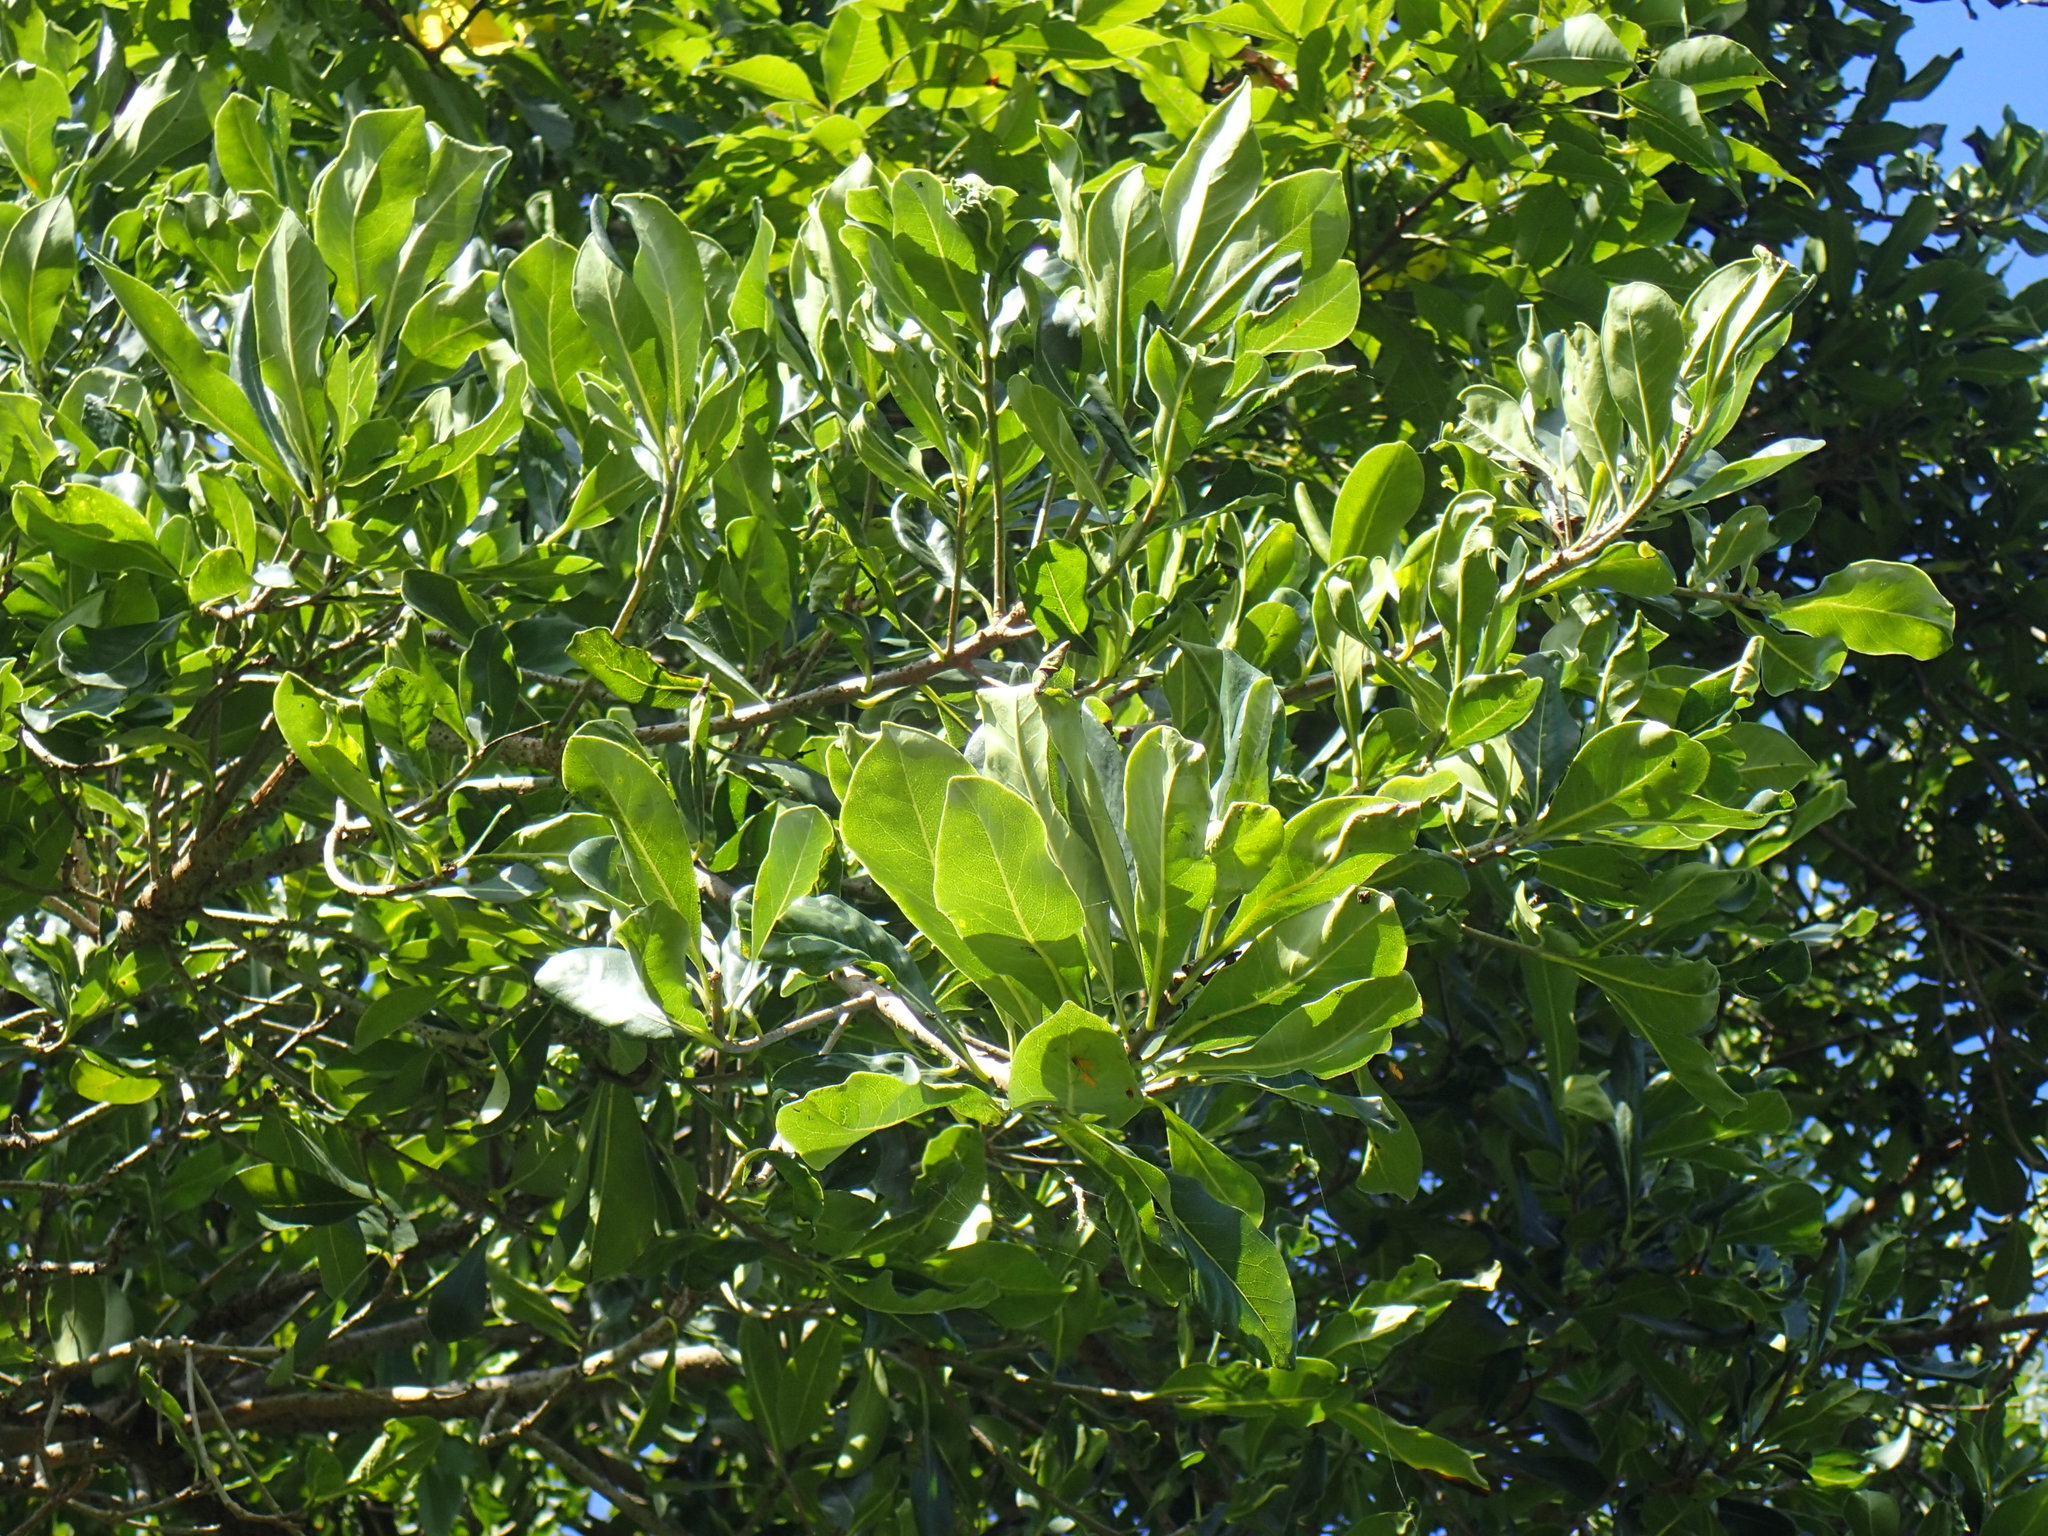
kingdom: Plantae
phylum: Tracheophyta
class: Magnoliopsida
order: Apiales
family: Pittosporaceae
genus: Pittosporum
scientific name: Pittosporum viridiflorum
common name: Cape cheesewood
